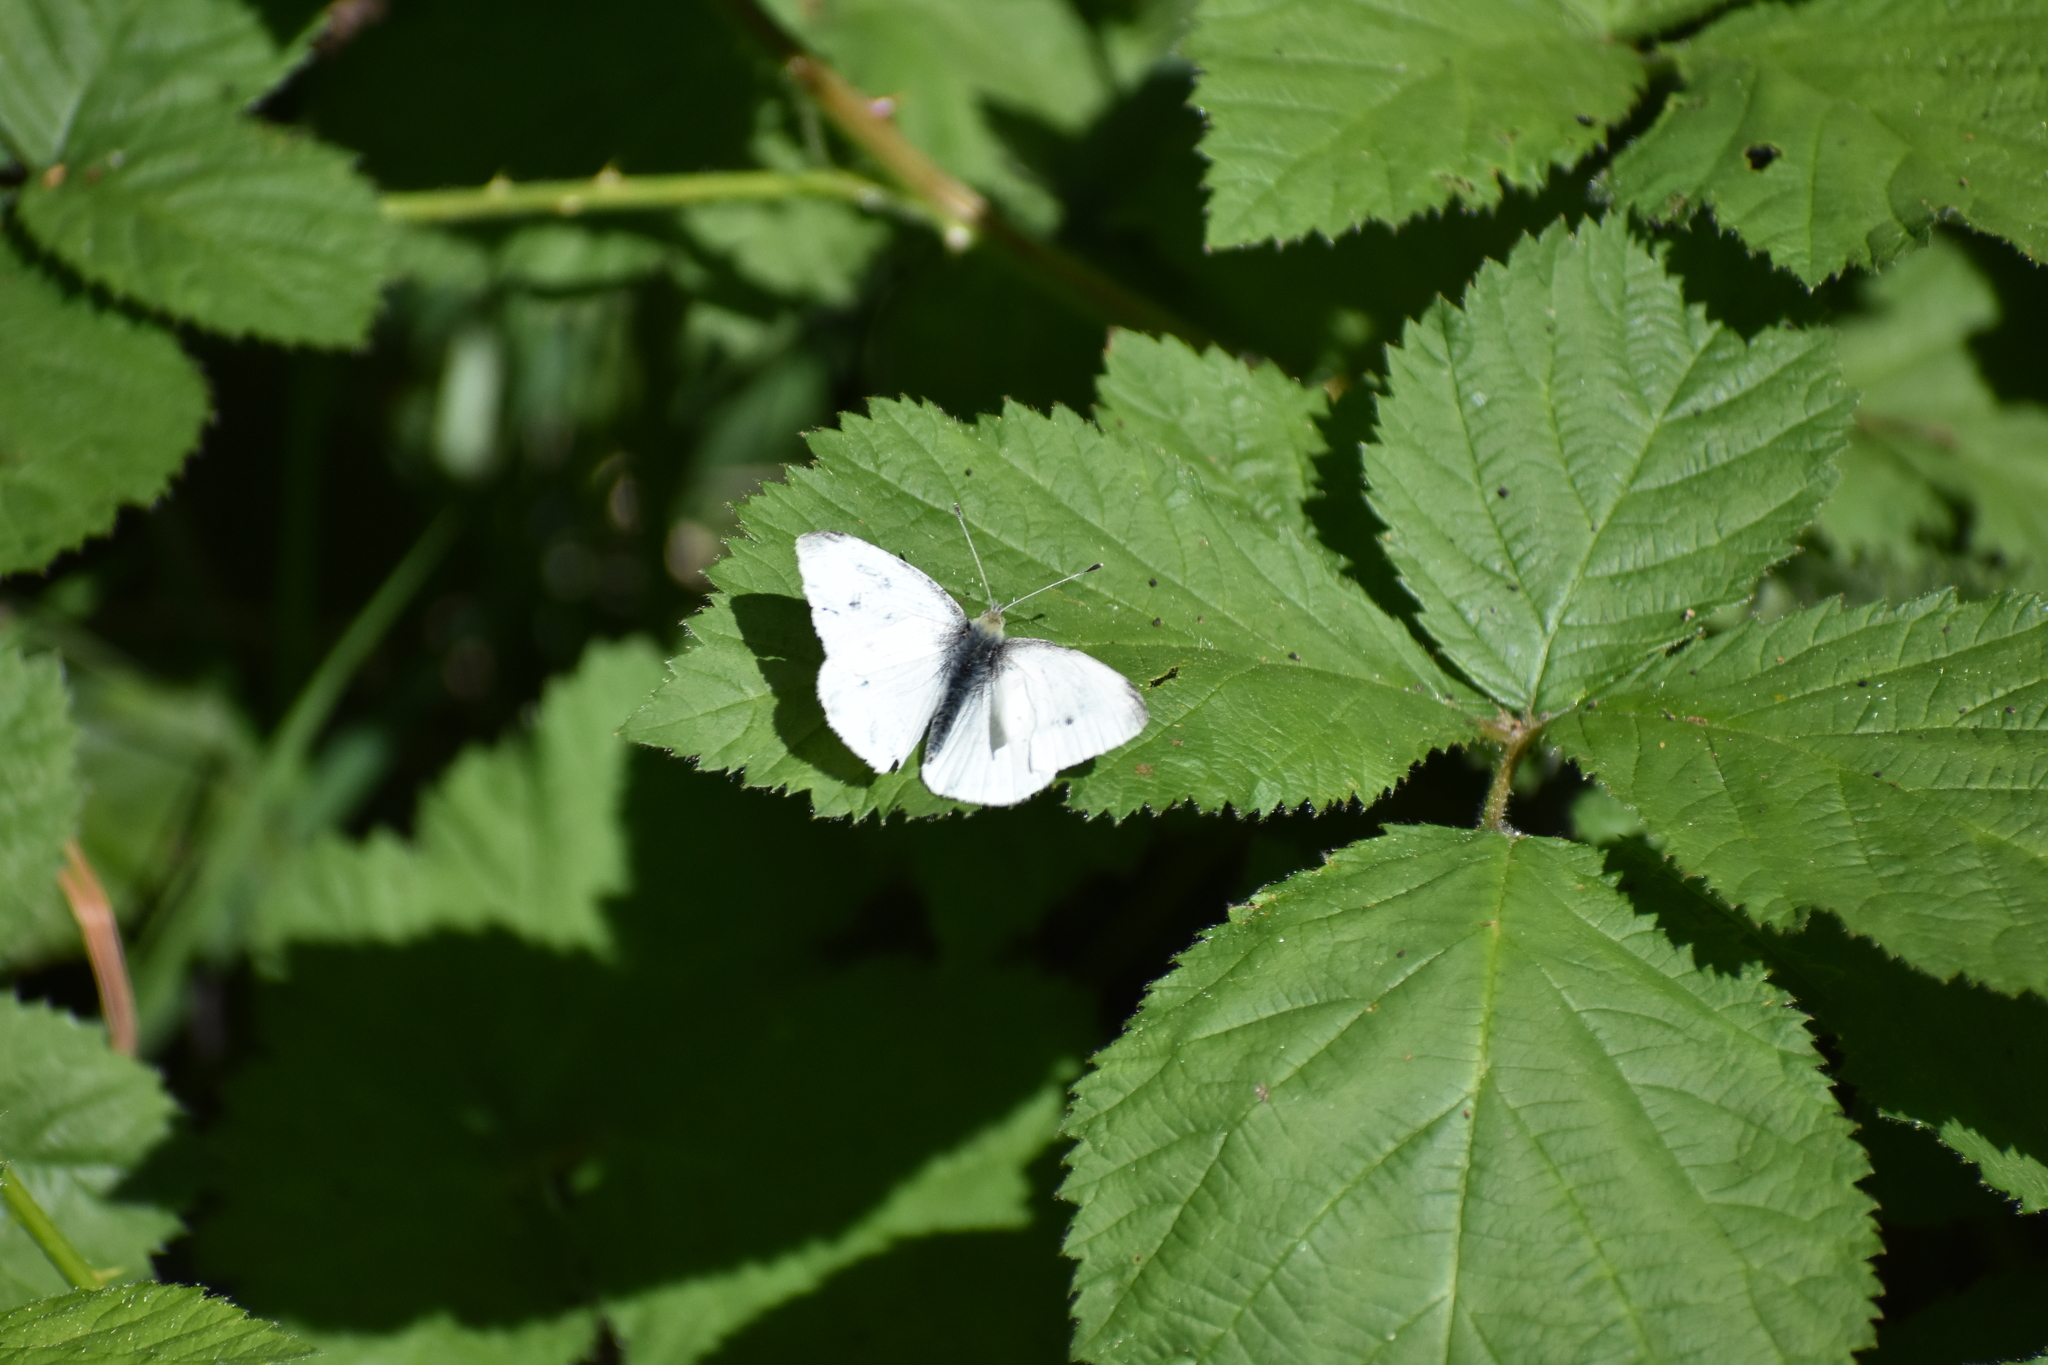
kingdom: Animalia
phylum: Arthropoda
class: Insecta
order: Lepidoptera
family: Pieridae
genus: Pieris
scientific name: Pieris rapae
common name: Small white
